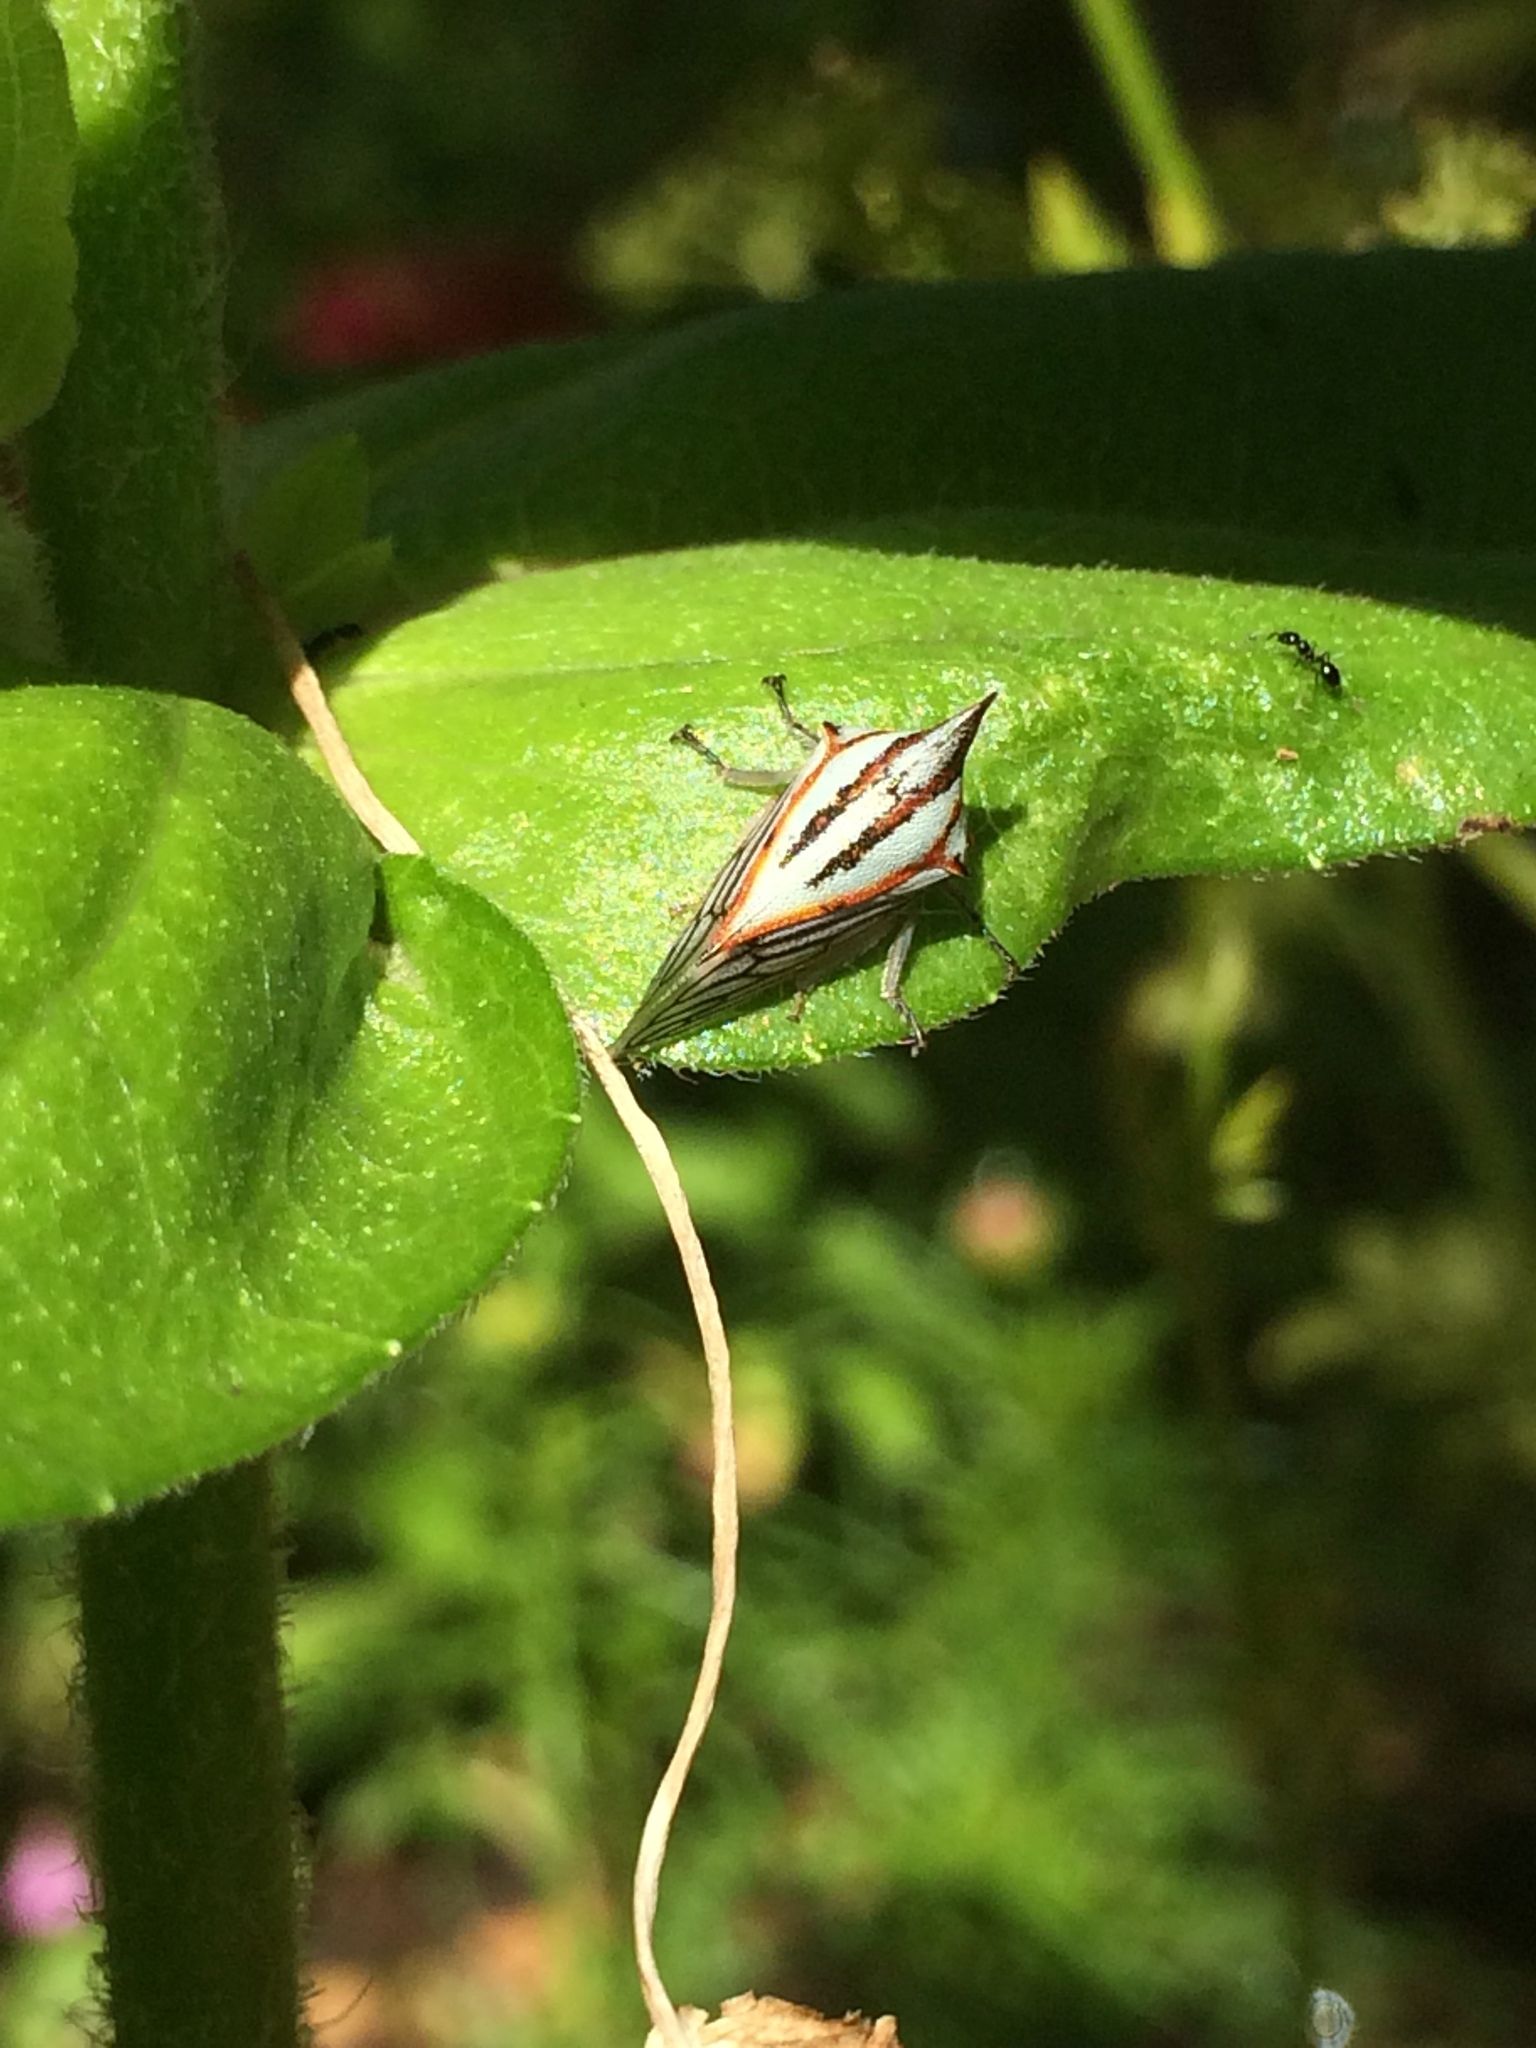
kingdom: Animalia
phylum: Arthropoda
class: Insecta
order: Hemiptera
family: Membracidae
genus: Platycotis
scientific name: Platycotis vittatus
